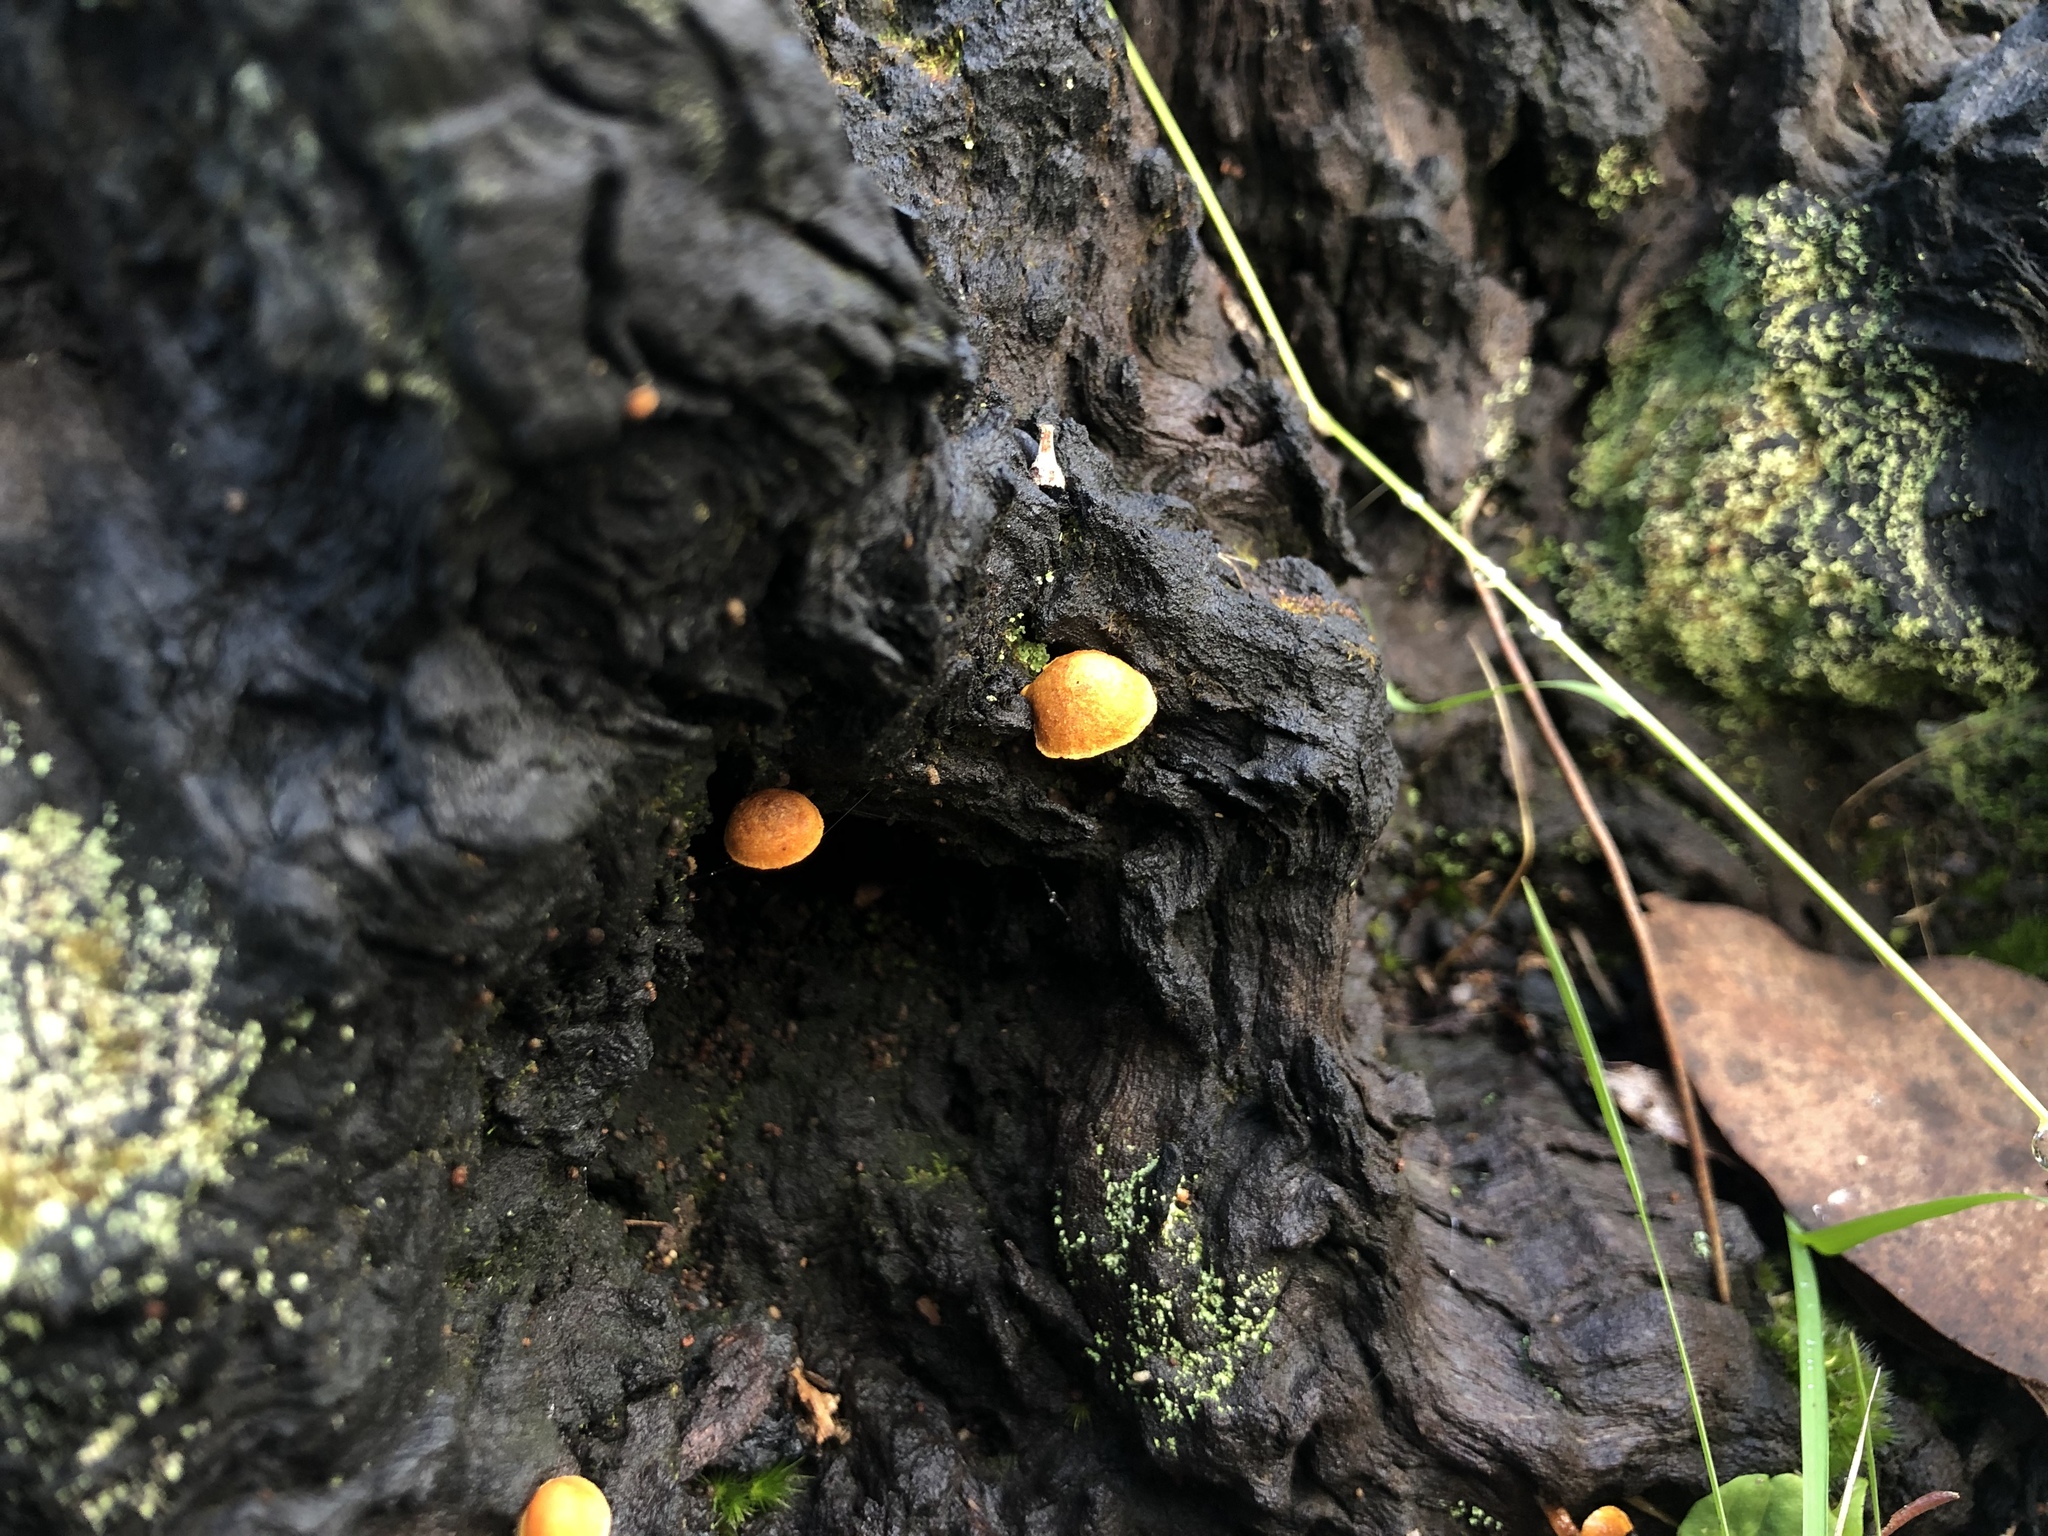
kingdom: Fungi
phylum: Basidiomycota
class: Agaricomycetes
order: Agaricales
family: Strophariaceae
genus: Pholiota
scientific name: Pholiota eucalyptorum
